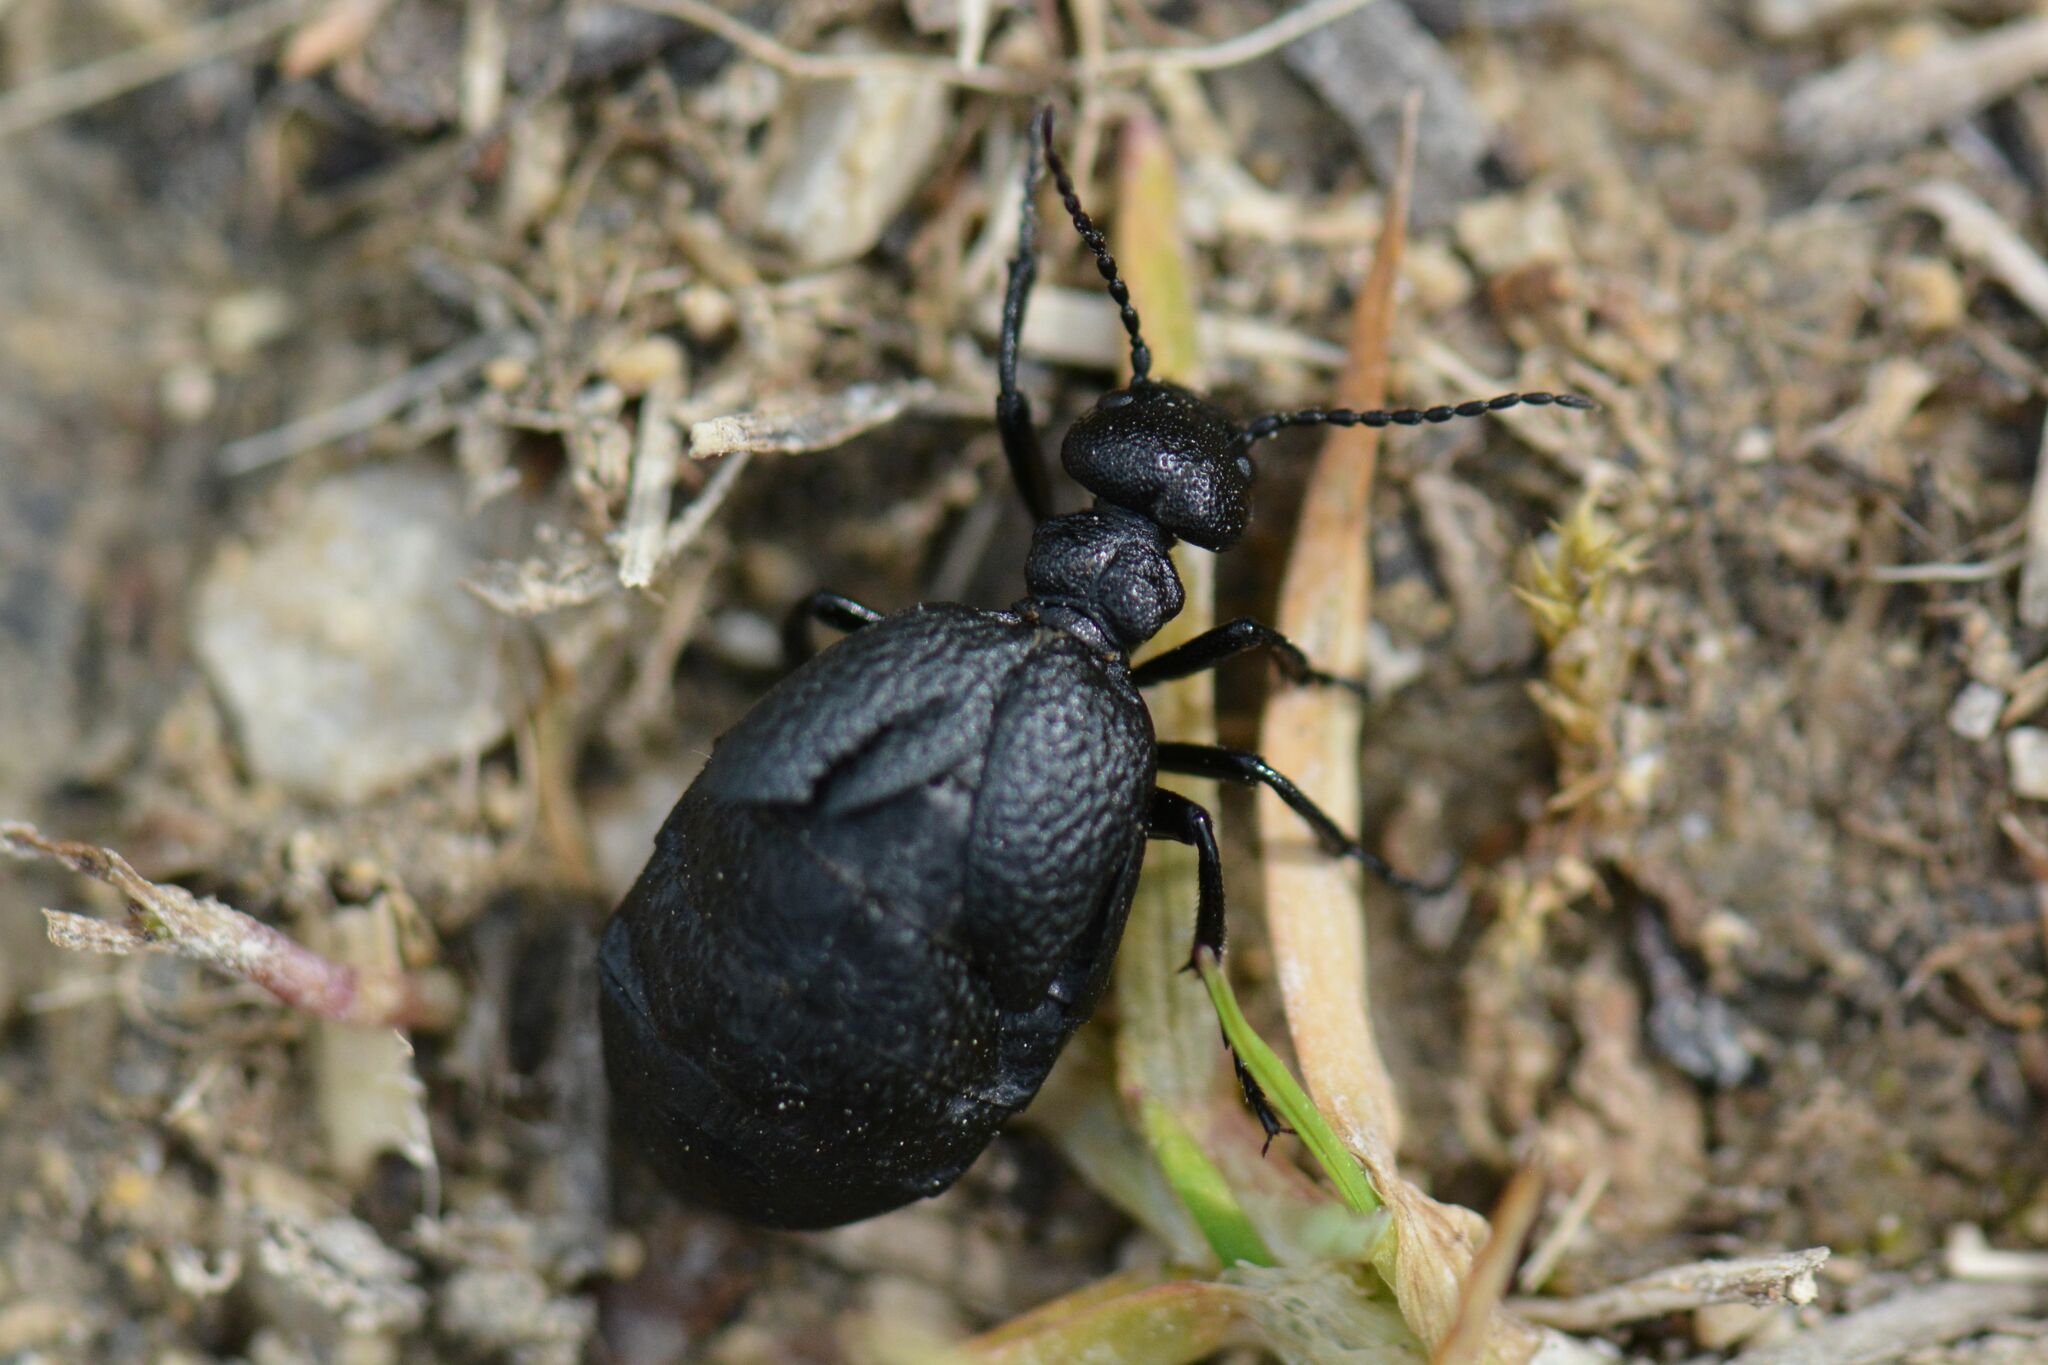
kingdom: Animalia
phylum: Arthropoda
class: Insecta
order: Coleoptera
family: Meloidae
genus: Meloe
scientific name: Meloe rugosus
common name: Rugged oil-beetle
